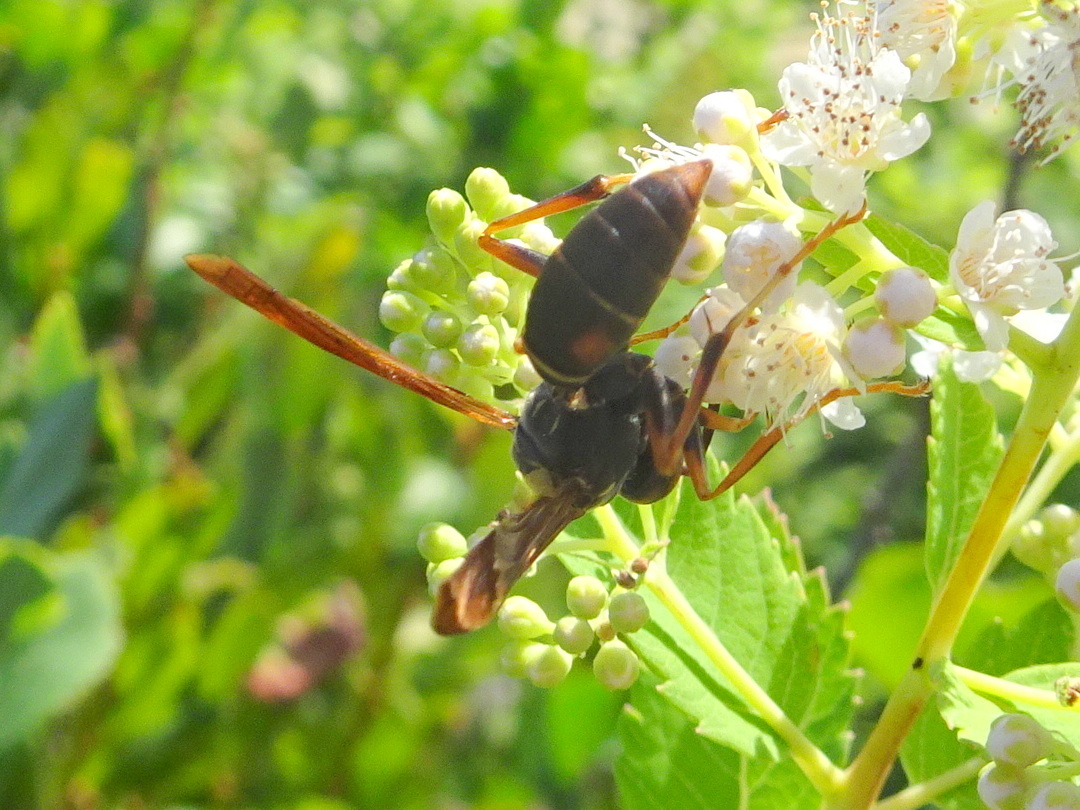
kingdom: Animalia
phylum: Arthropoda
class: Insecta
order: Hymenoptera
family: Eumenidae
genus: Polistes
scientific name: Polistes fuscatus
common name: Dark paper wasp
